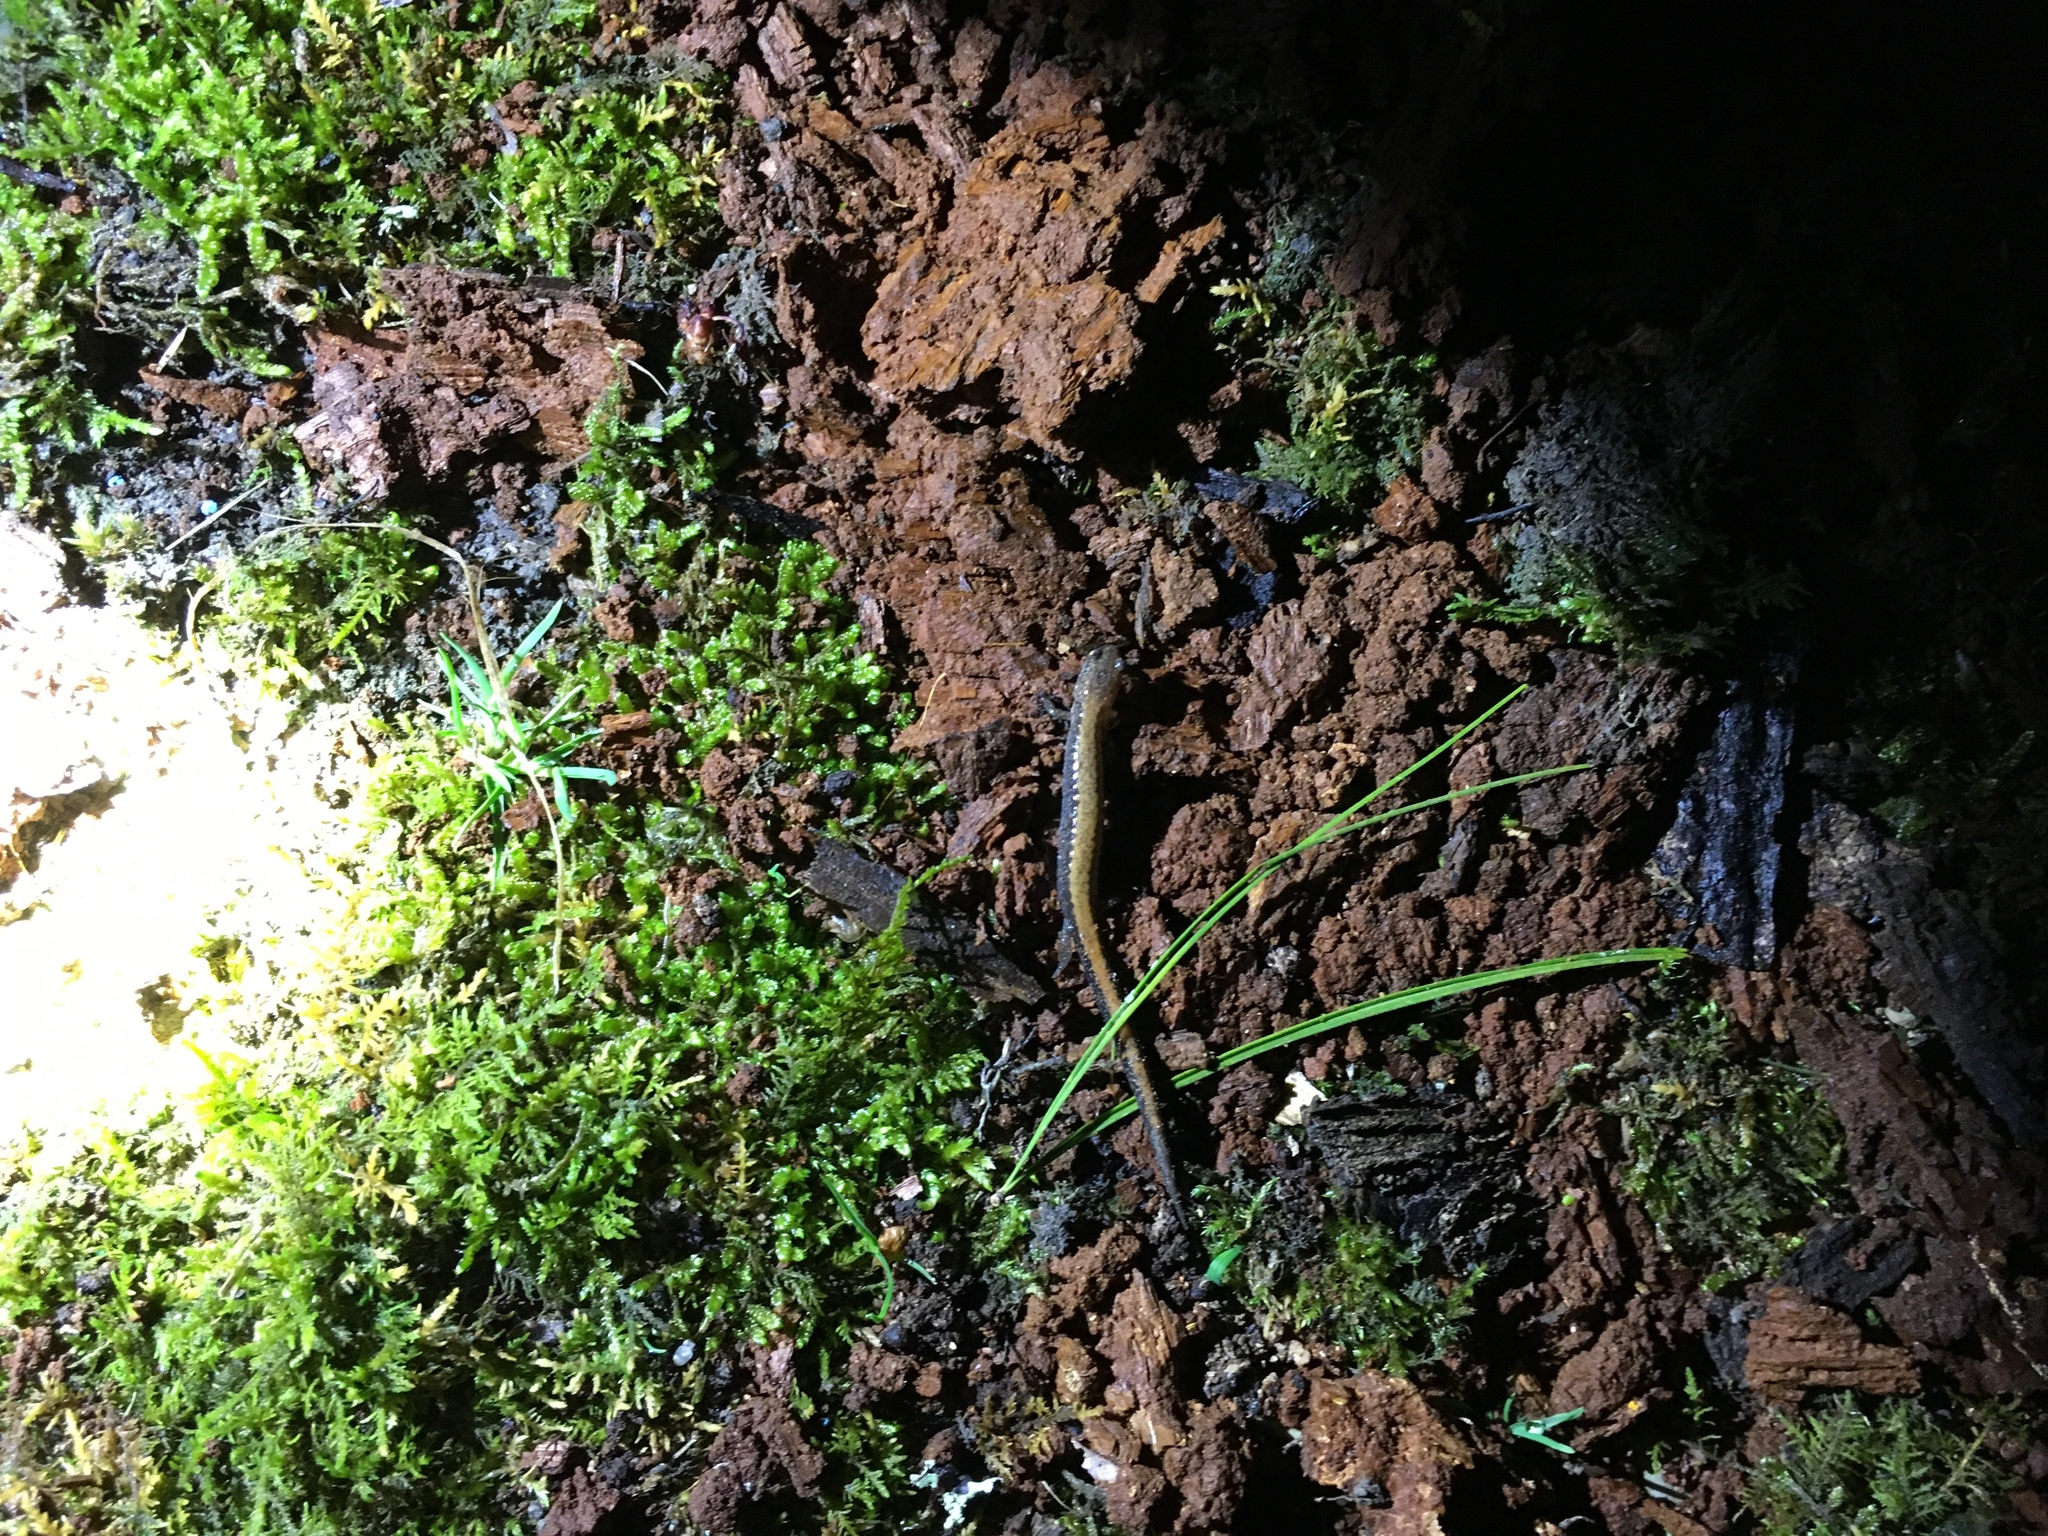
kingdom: Animalia
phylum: Chordata
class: Amphibia
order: Caudata
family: Plethodontidae
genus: Plethodon
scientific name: Plethodon cinereus
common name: Redback salamander
